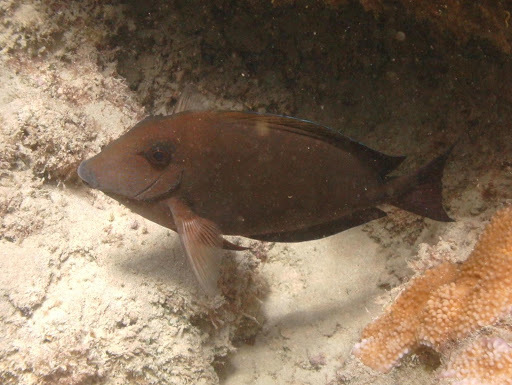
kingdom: Animalia
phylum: Chordata
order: Perciformes
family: Acanthuridae
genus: Acanthurus
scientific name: Acanthurus nigrofuscus
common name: Blackspot surgeonfish
